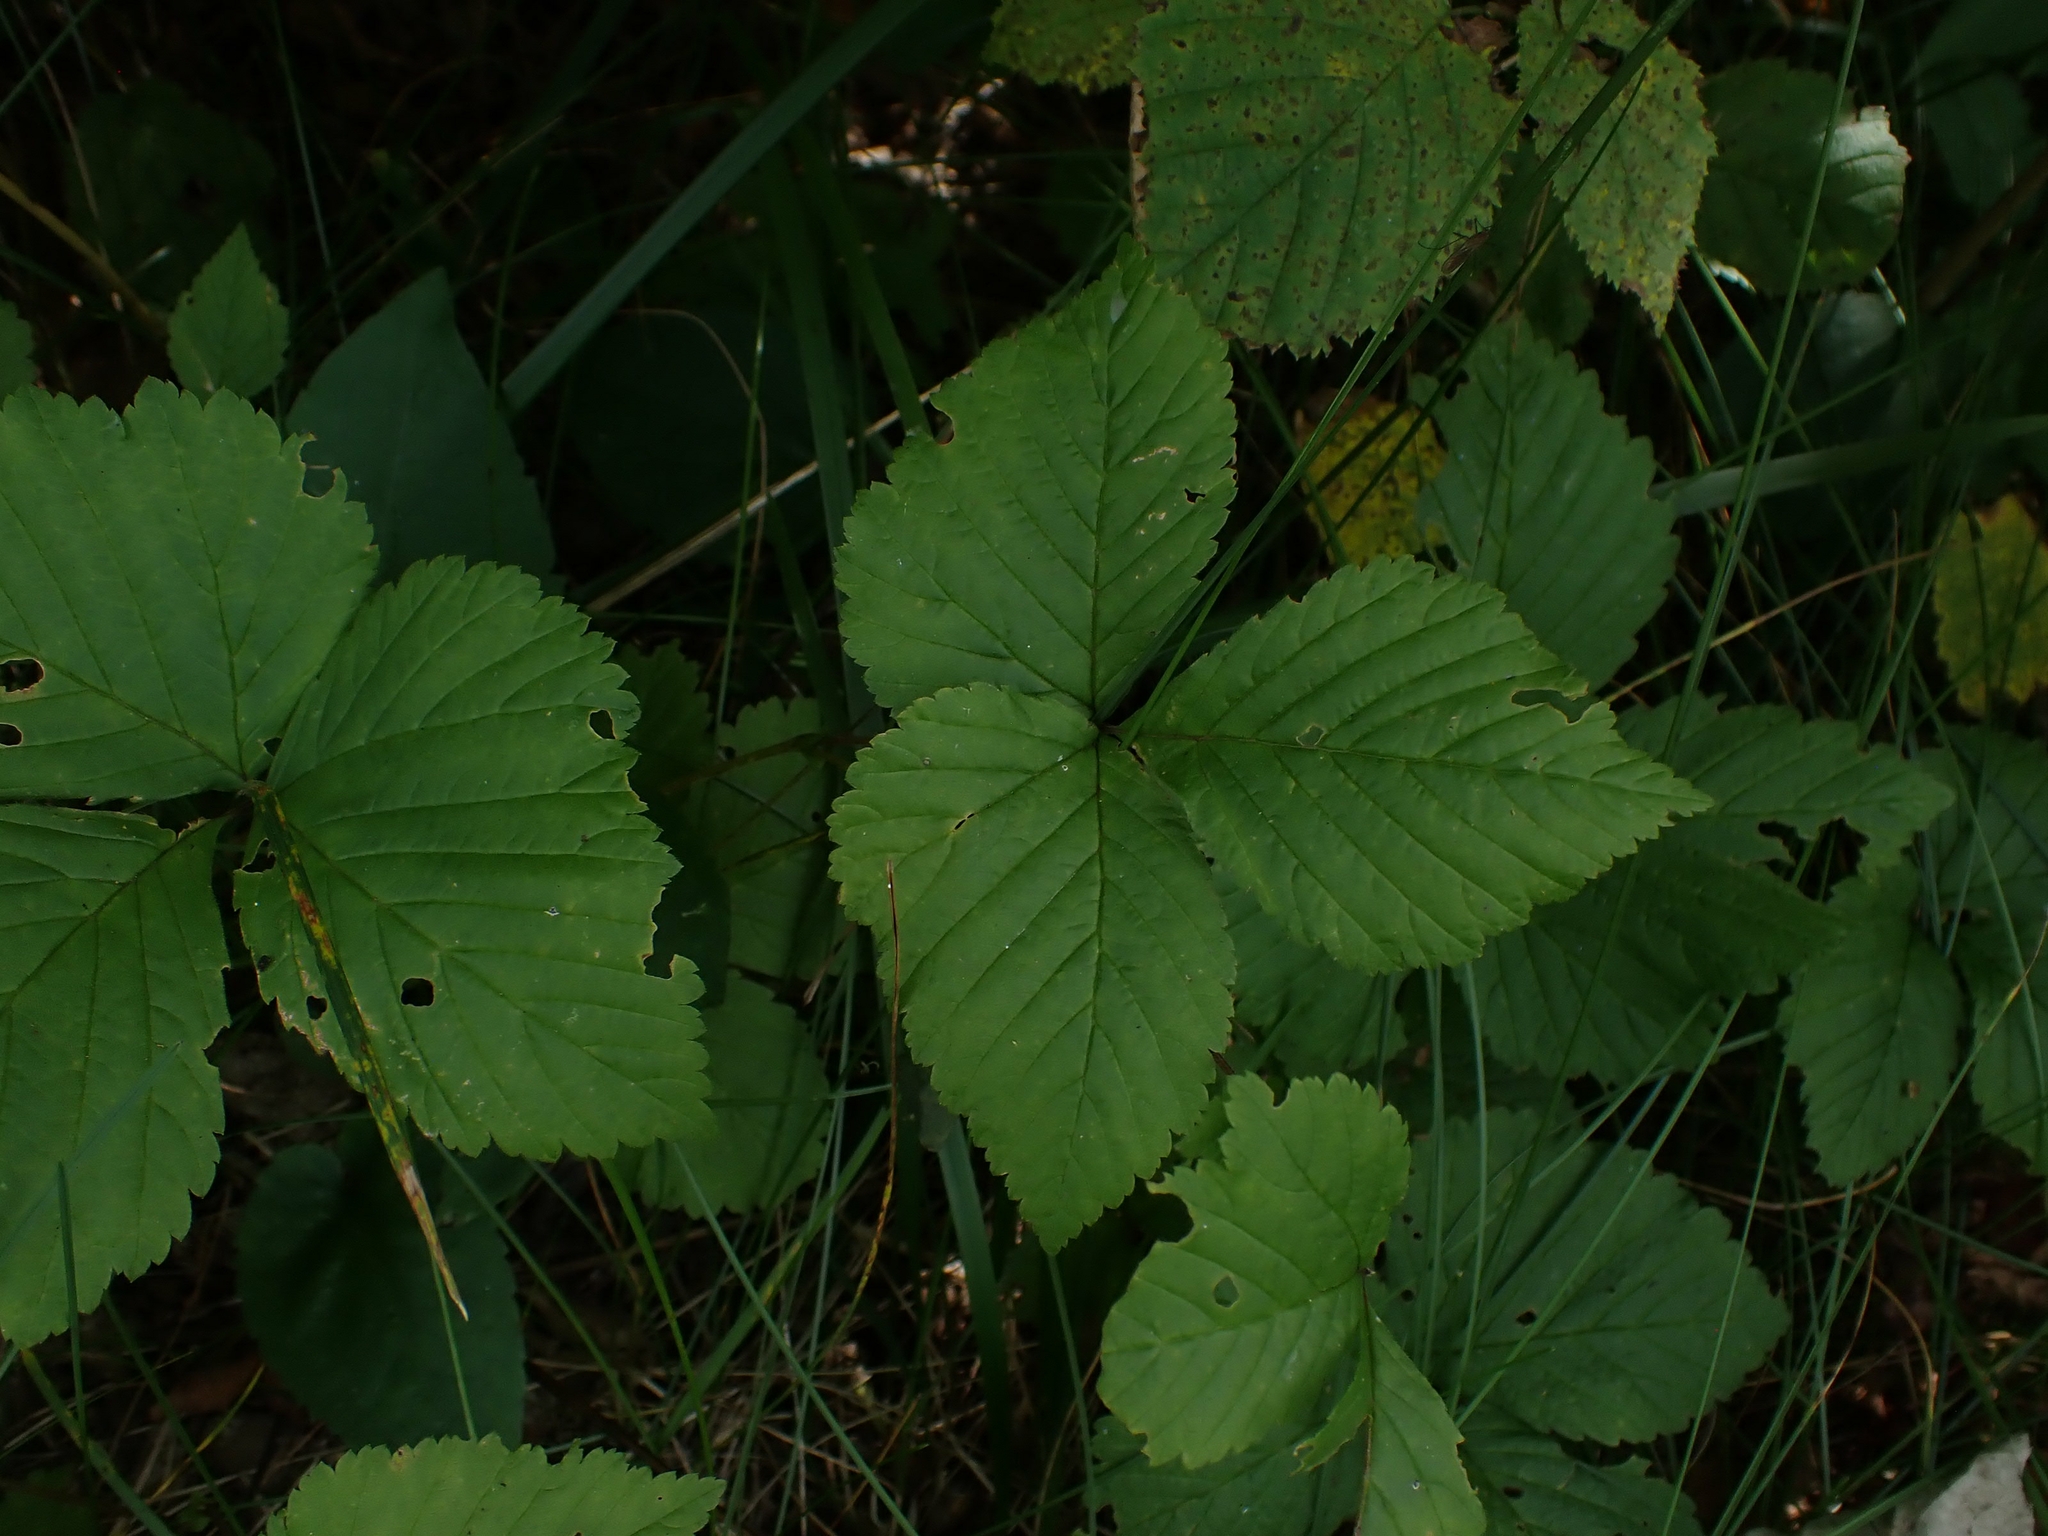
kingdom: Plantae
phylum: Tracheophyta
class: Magnoliopsida
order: Rosales
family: Rosaceae
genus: Rubus
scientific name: Rubus pubescens
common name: Dwarf raspberry
